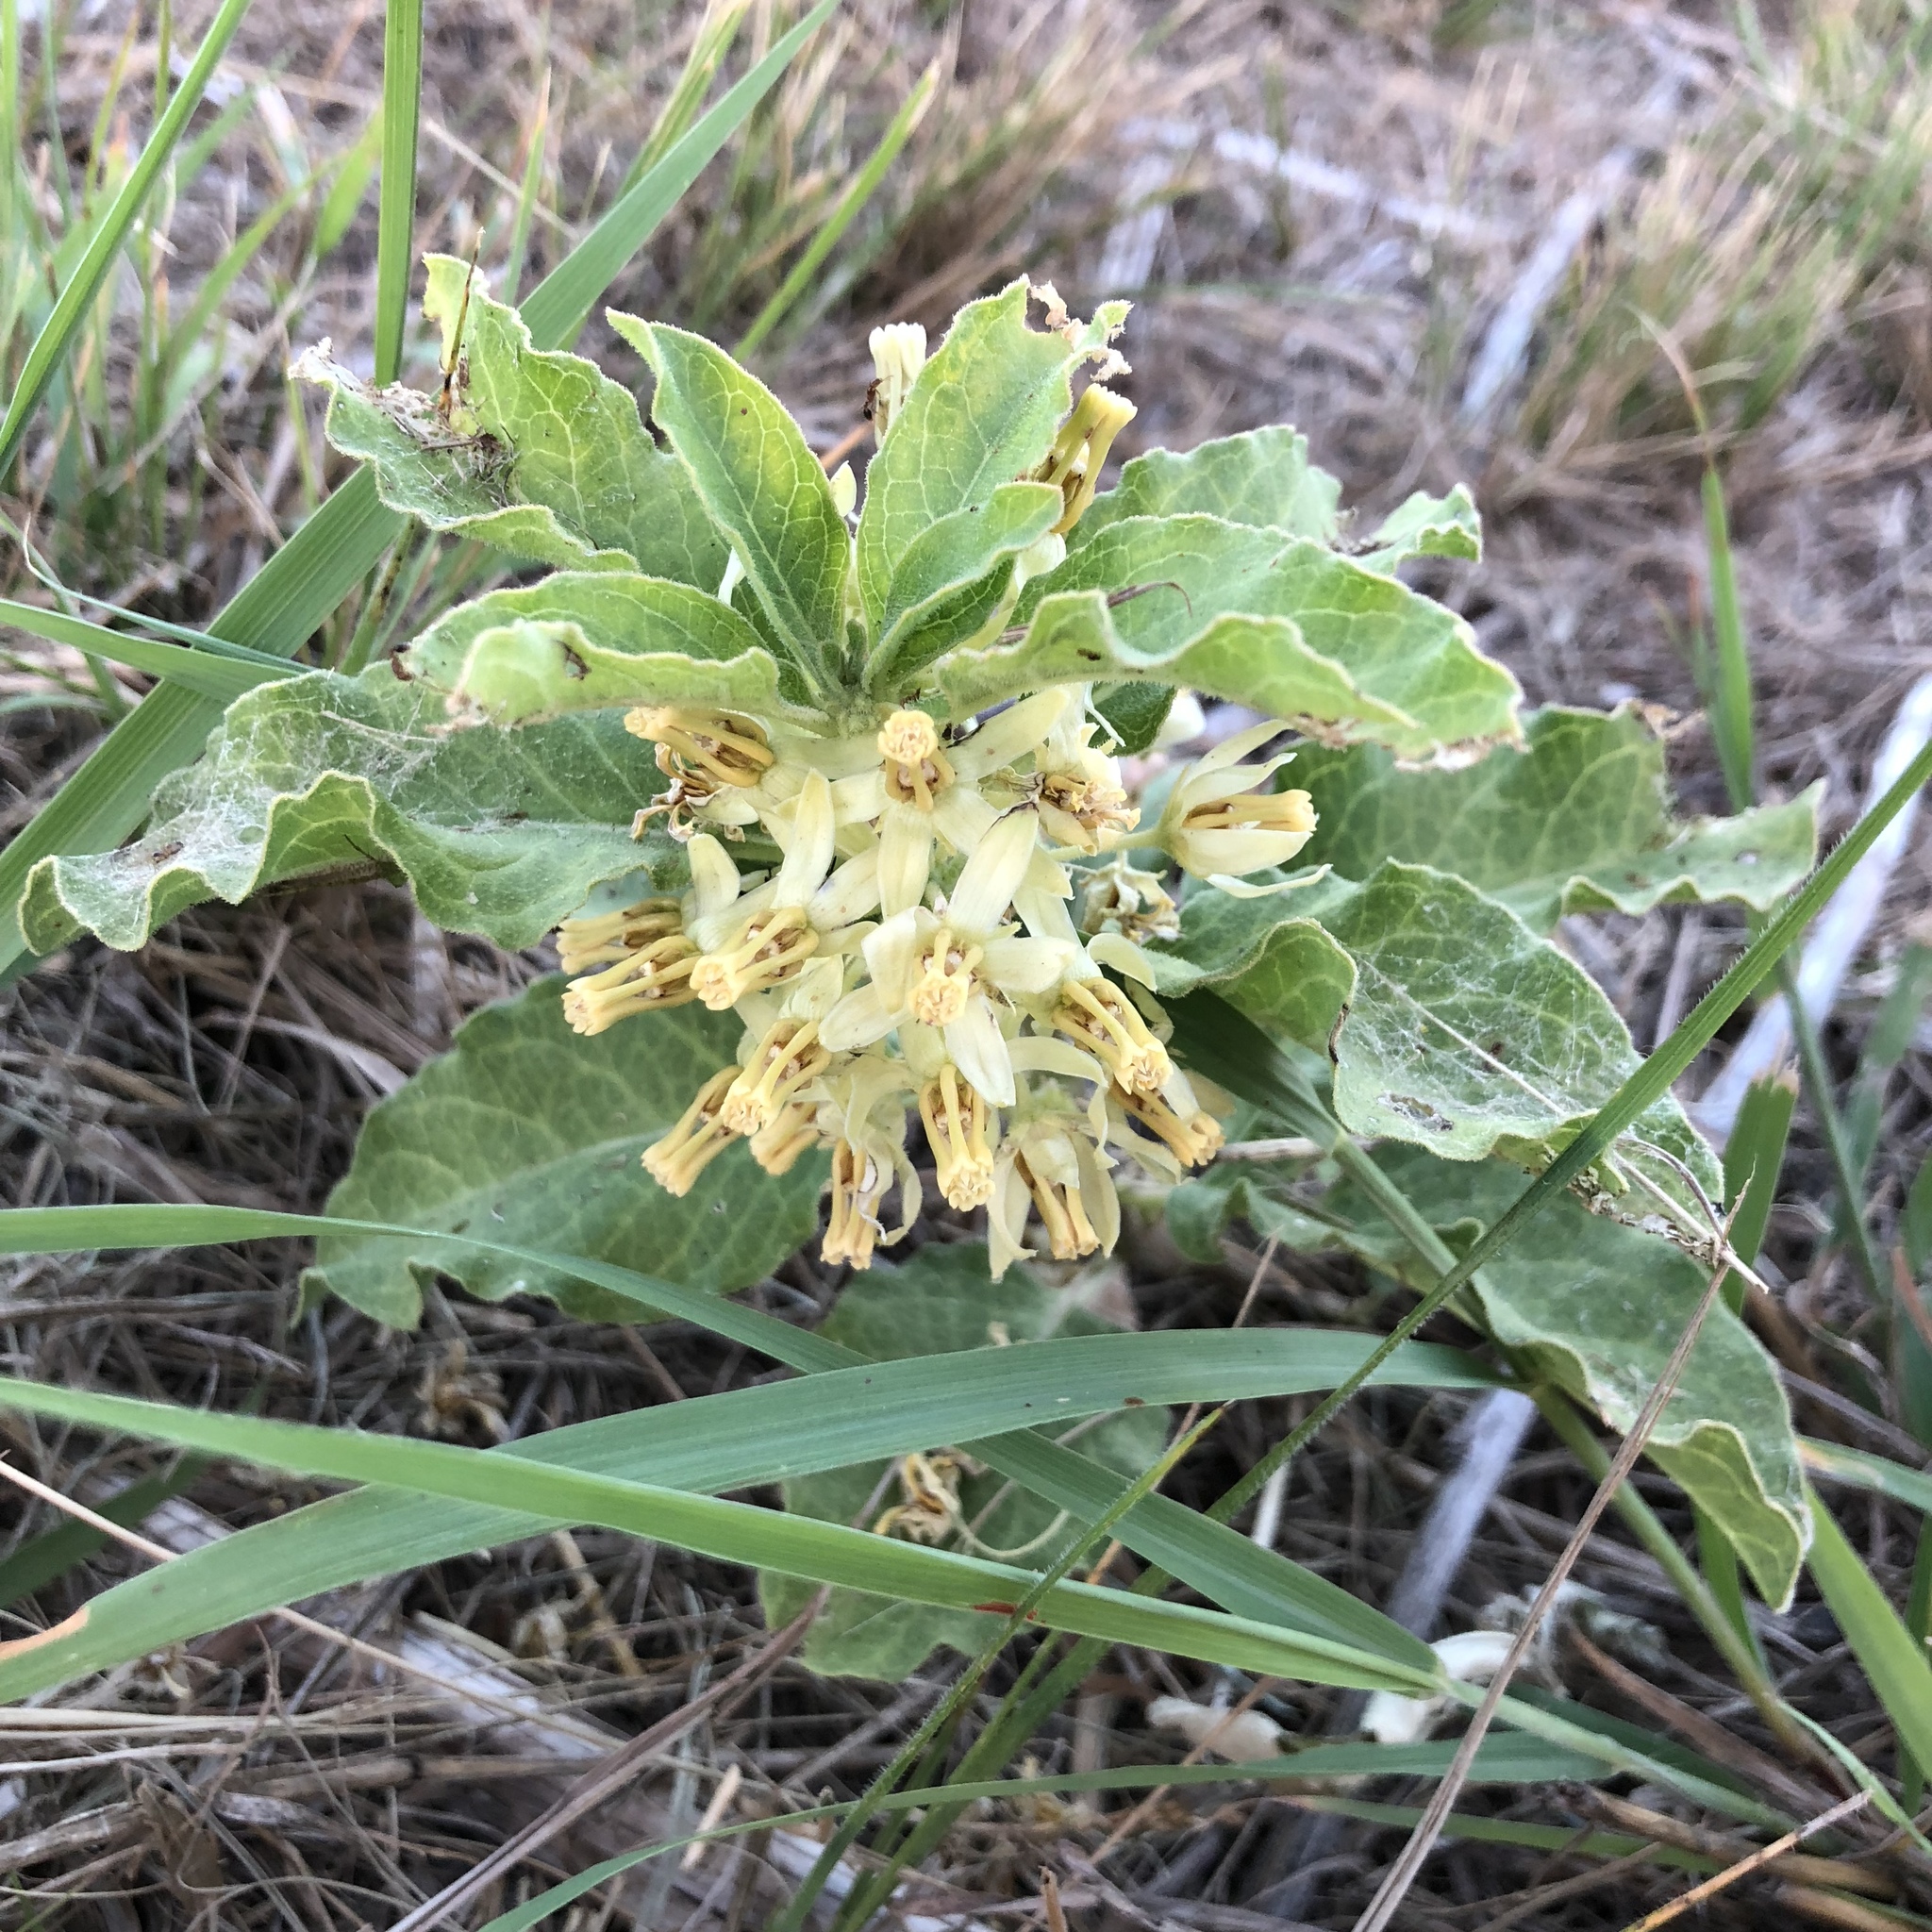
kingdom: Plantae
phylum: Tracheophyta
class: Magnoliopsida
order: Gentianales
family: Apocynaceae
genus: Asclepias
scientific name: Asclepias oenotheroides
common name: Zizotes milkweed
